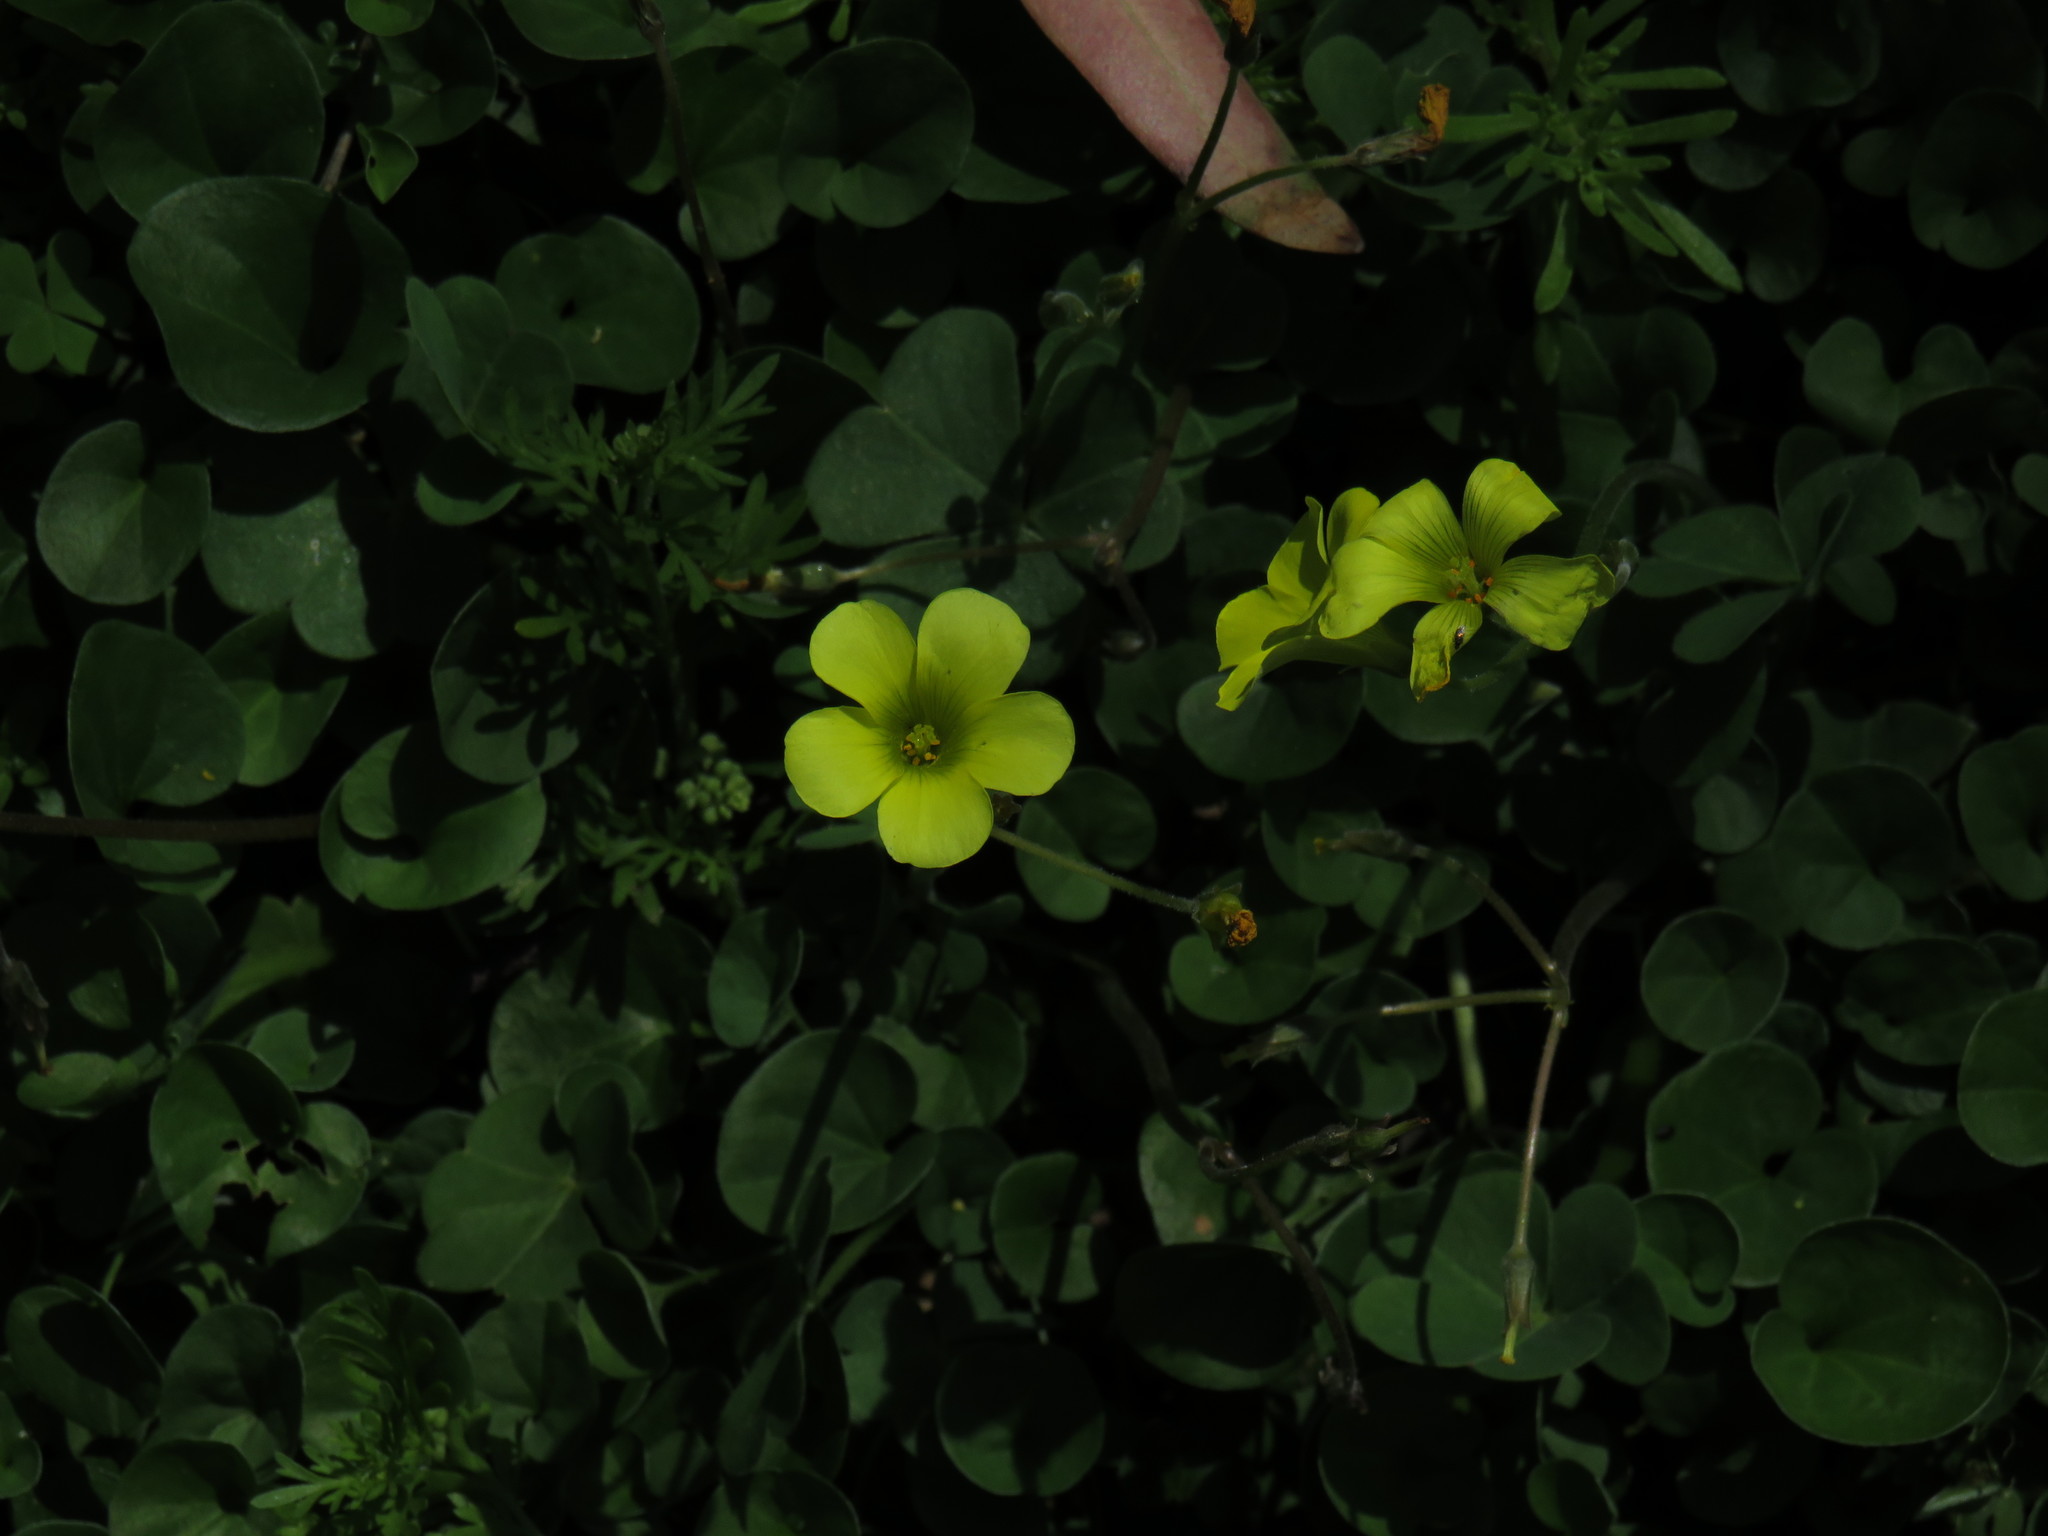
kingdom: Plantae
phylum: Tracheophyta
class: Magnoliopsida
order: Oxalidales
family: Oxalidaceae
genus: Oxalis
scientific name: Oxalis pes-caprae
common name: Bermuda-buttercup
